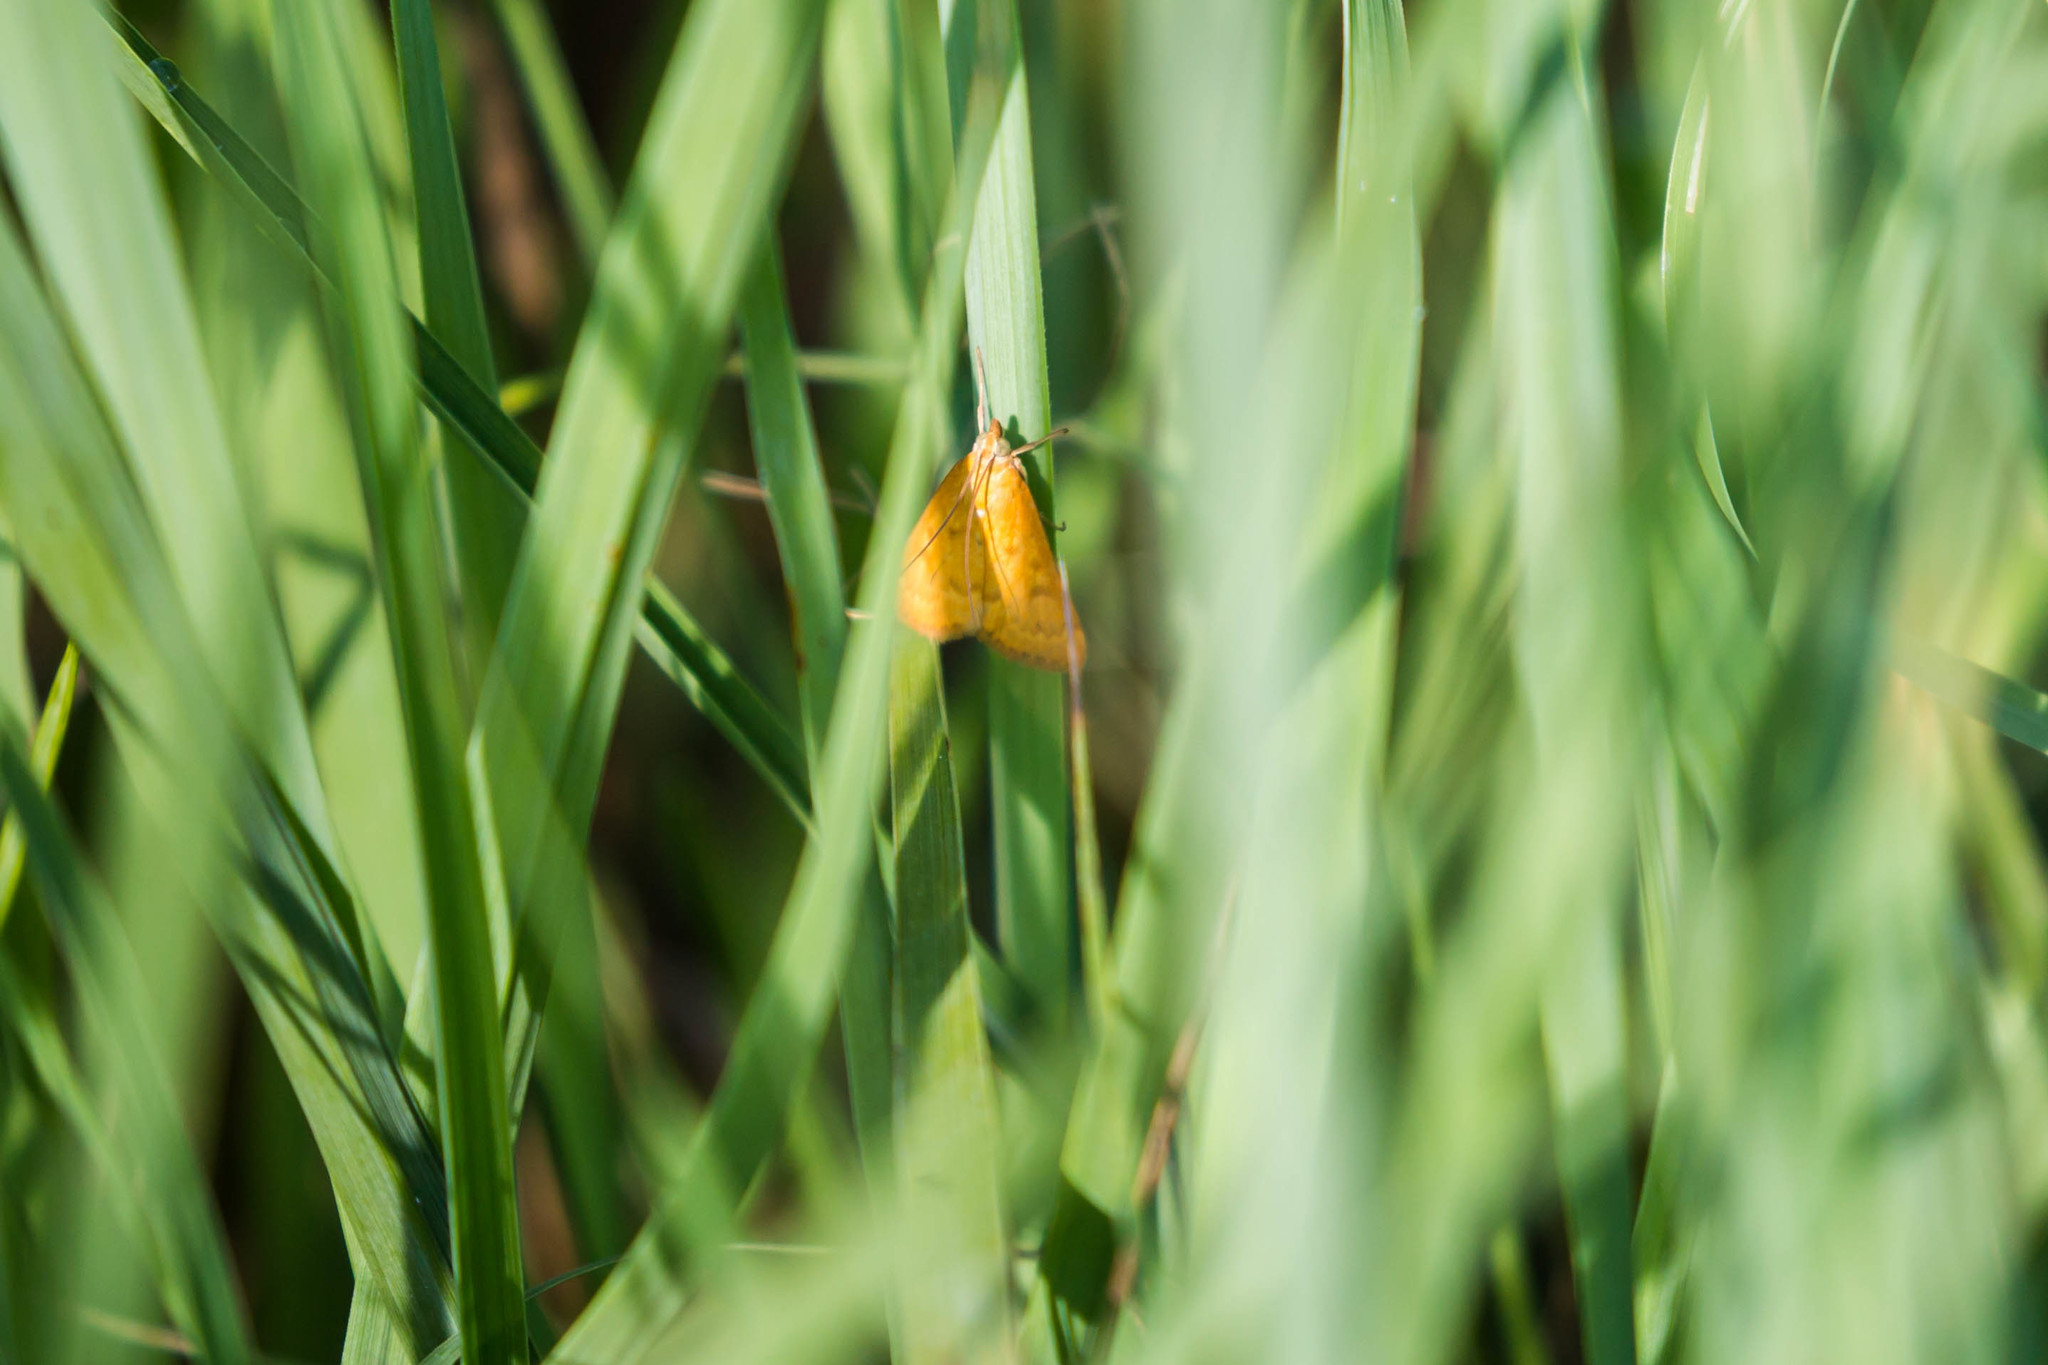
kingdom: Animalia
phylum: Arthropoda
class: Insecta
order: Lepidoptera
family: Crambidae
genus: Achyra
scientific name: Achyra rantalis
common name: Garden webworm
